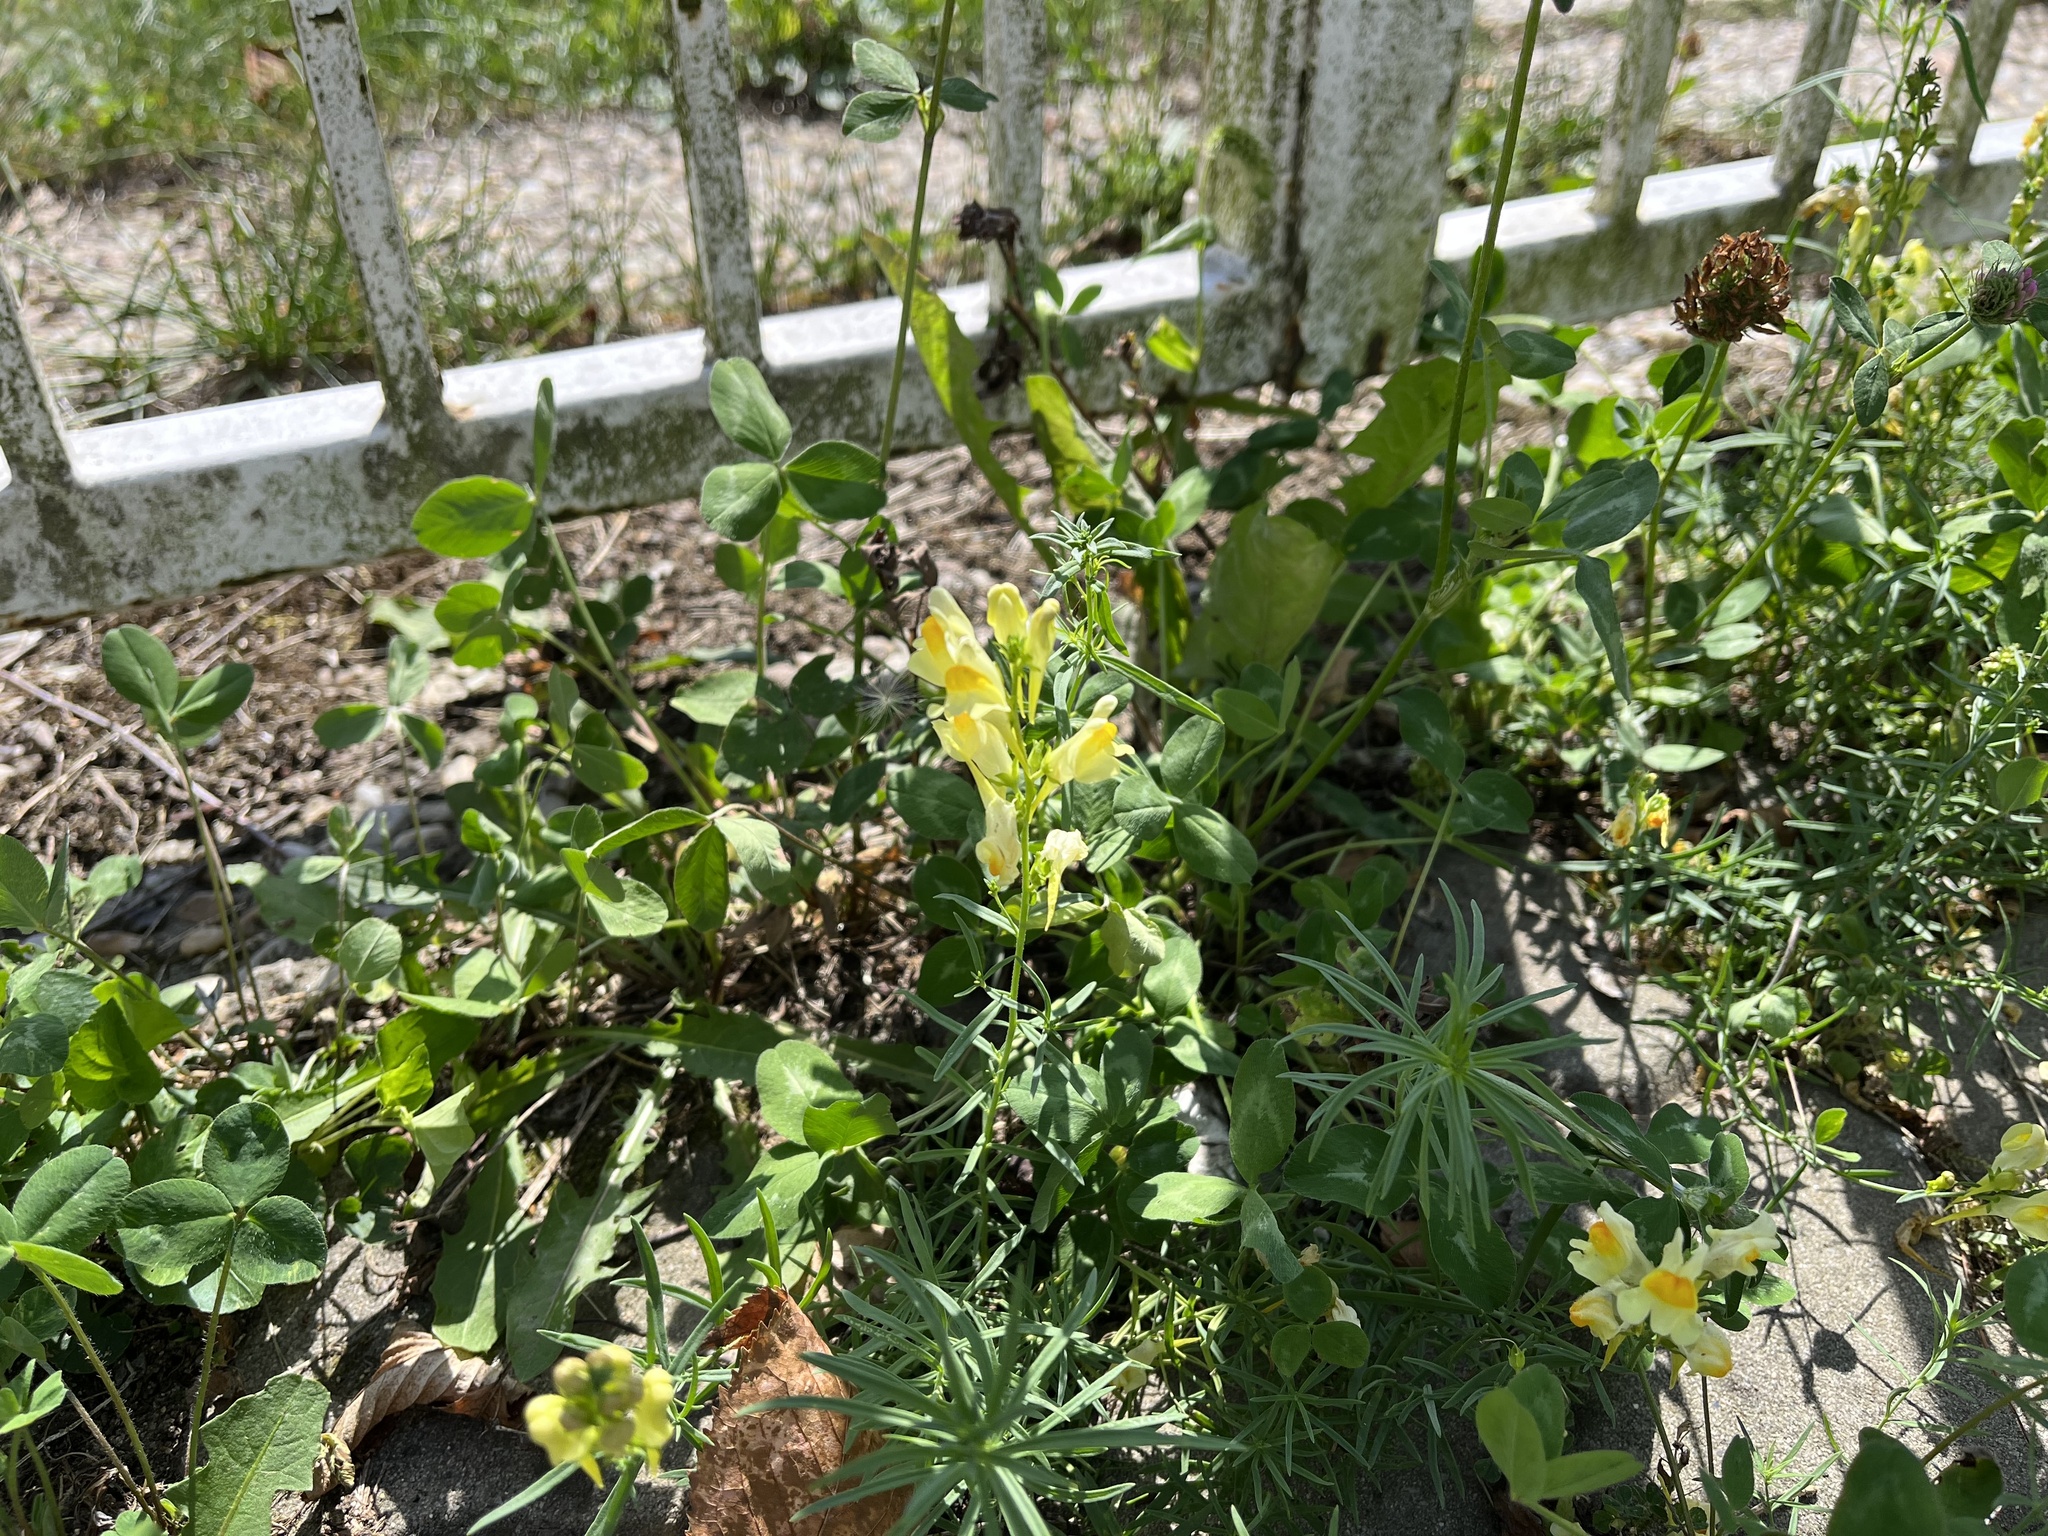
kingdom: Plantae
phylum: Tracheophyta
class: Magnoliopsida
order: Lamiales
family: Plantaginaceae
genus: Linaria
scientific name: Linaria vulgaris
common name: Butter and eggs
